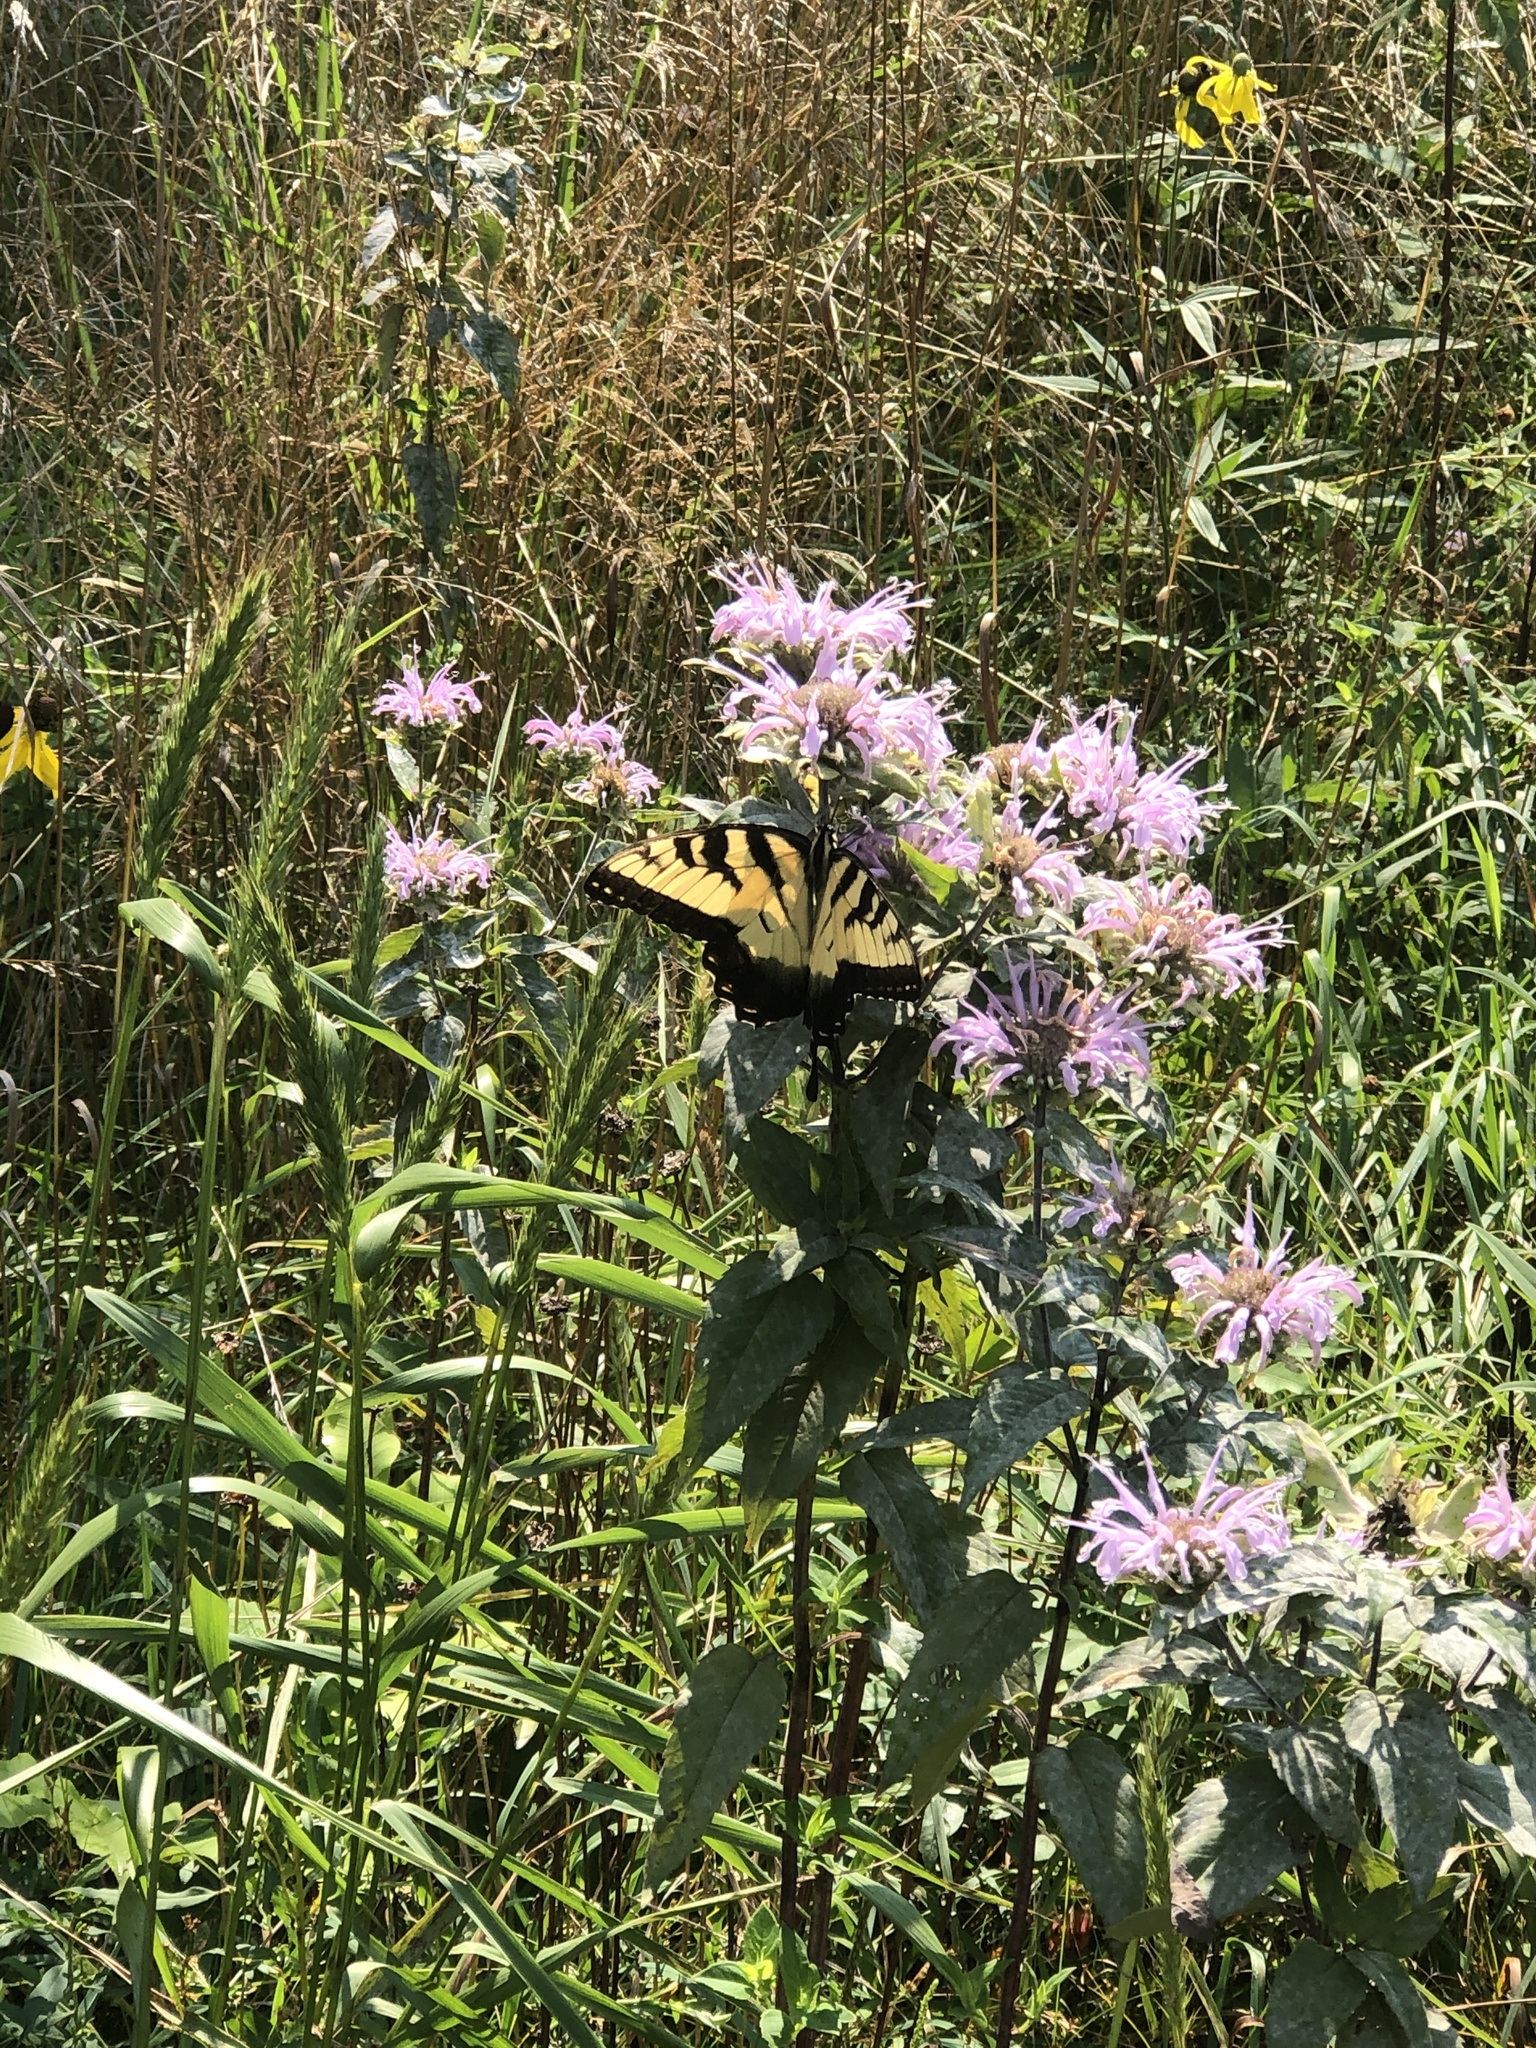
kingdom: Animalia
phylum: Arthropoda
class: Insecta
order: Lepidoptera
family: Papilionidae
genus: Papilio
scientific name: Papilio glaucus
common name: Tiger swallowtail
